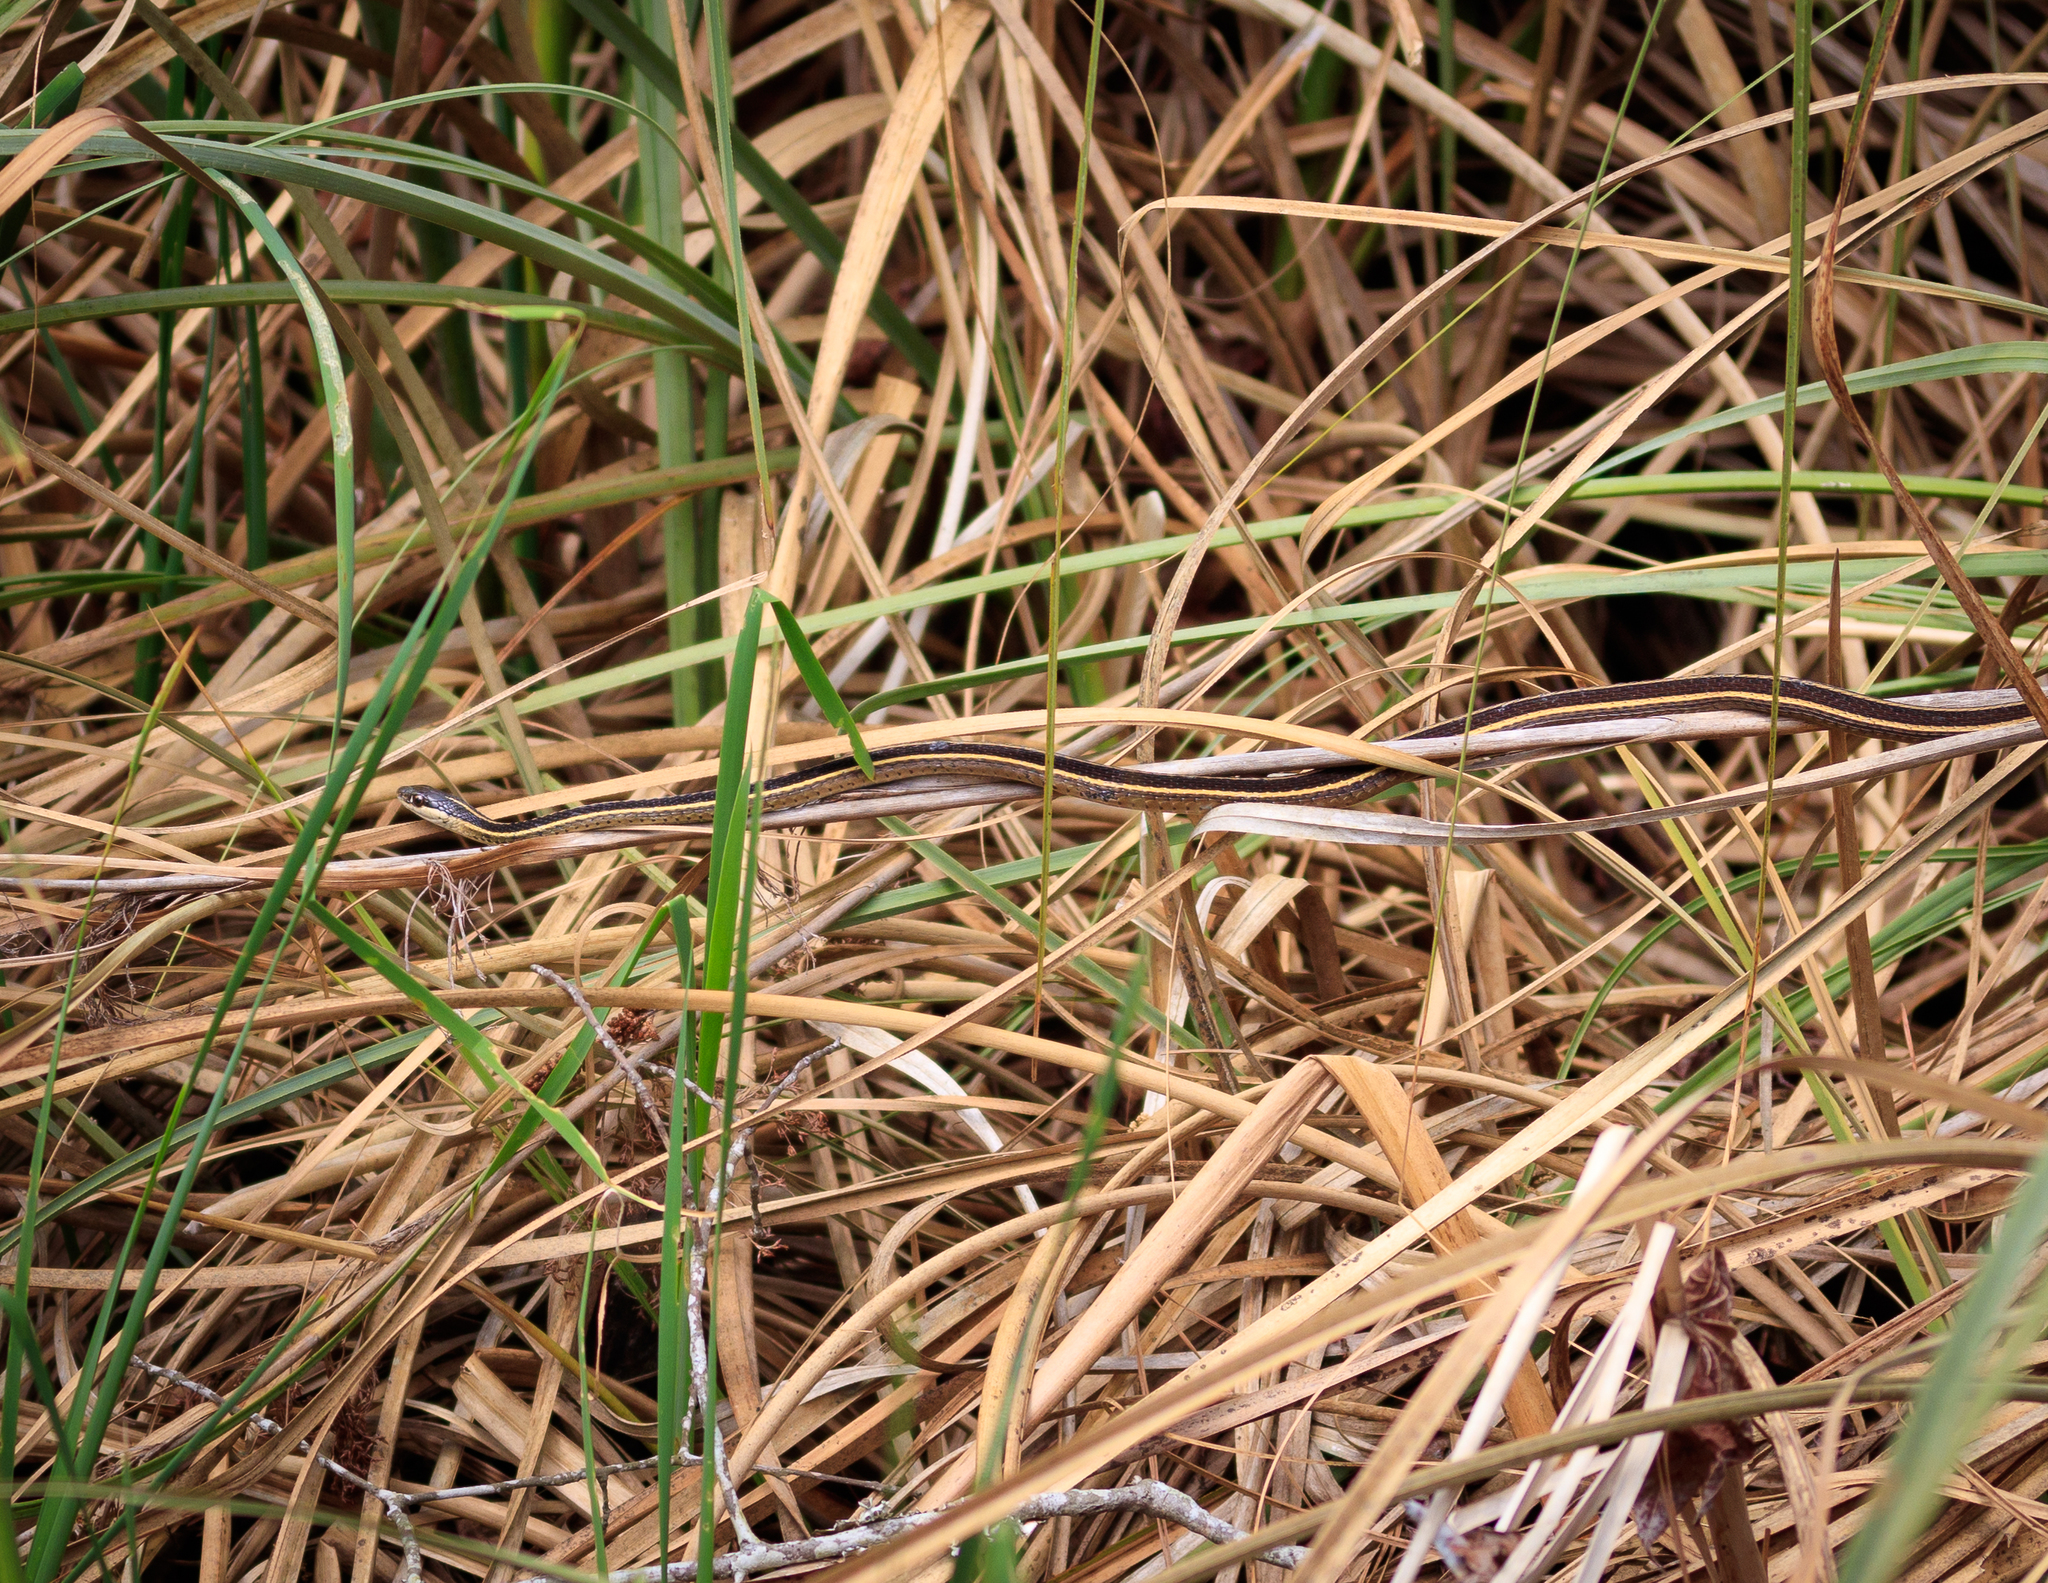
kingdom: Animalia
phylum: Chordata
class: Squamata
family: Colubridae
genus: Thamnophis
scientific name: Thamnophis saurita
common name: Eastern ribbonsnake
